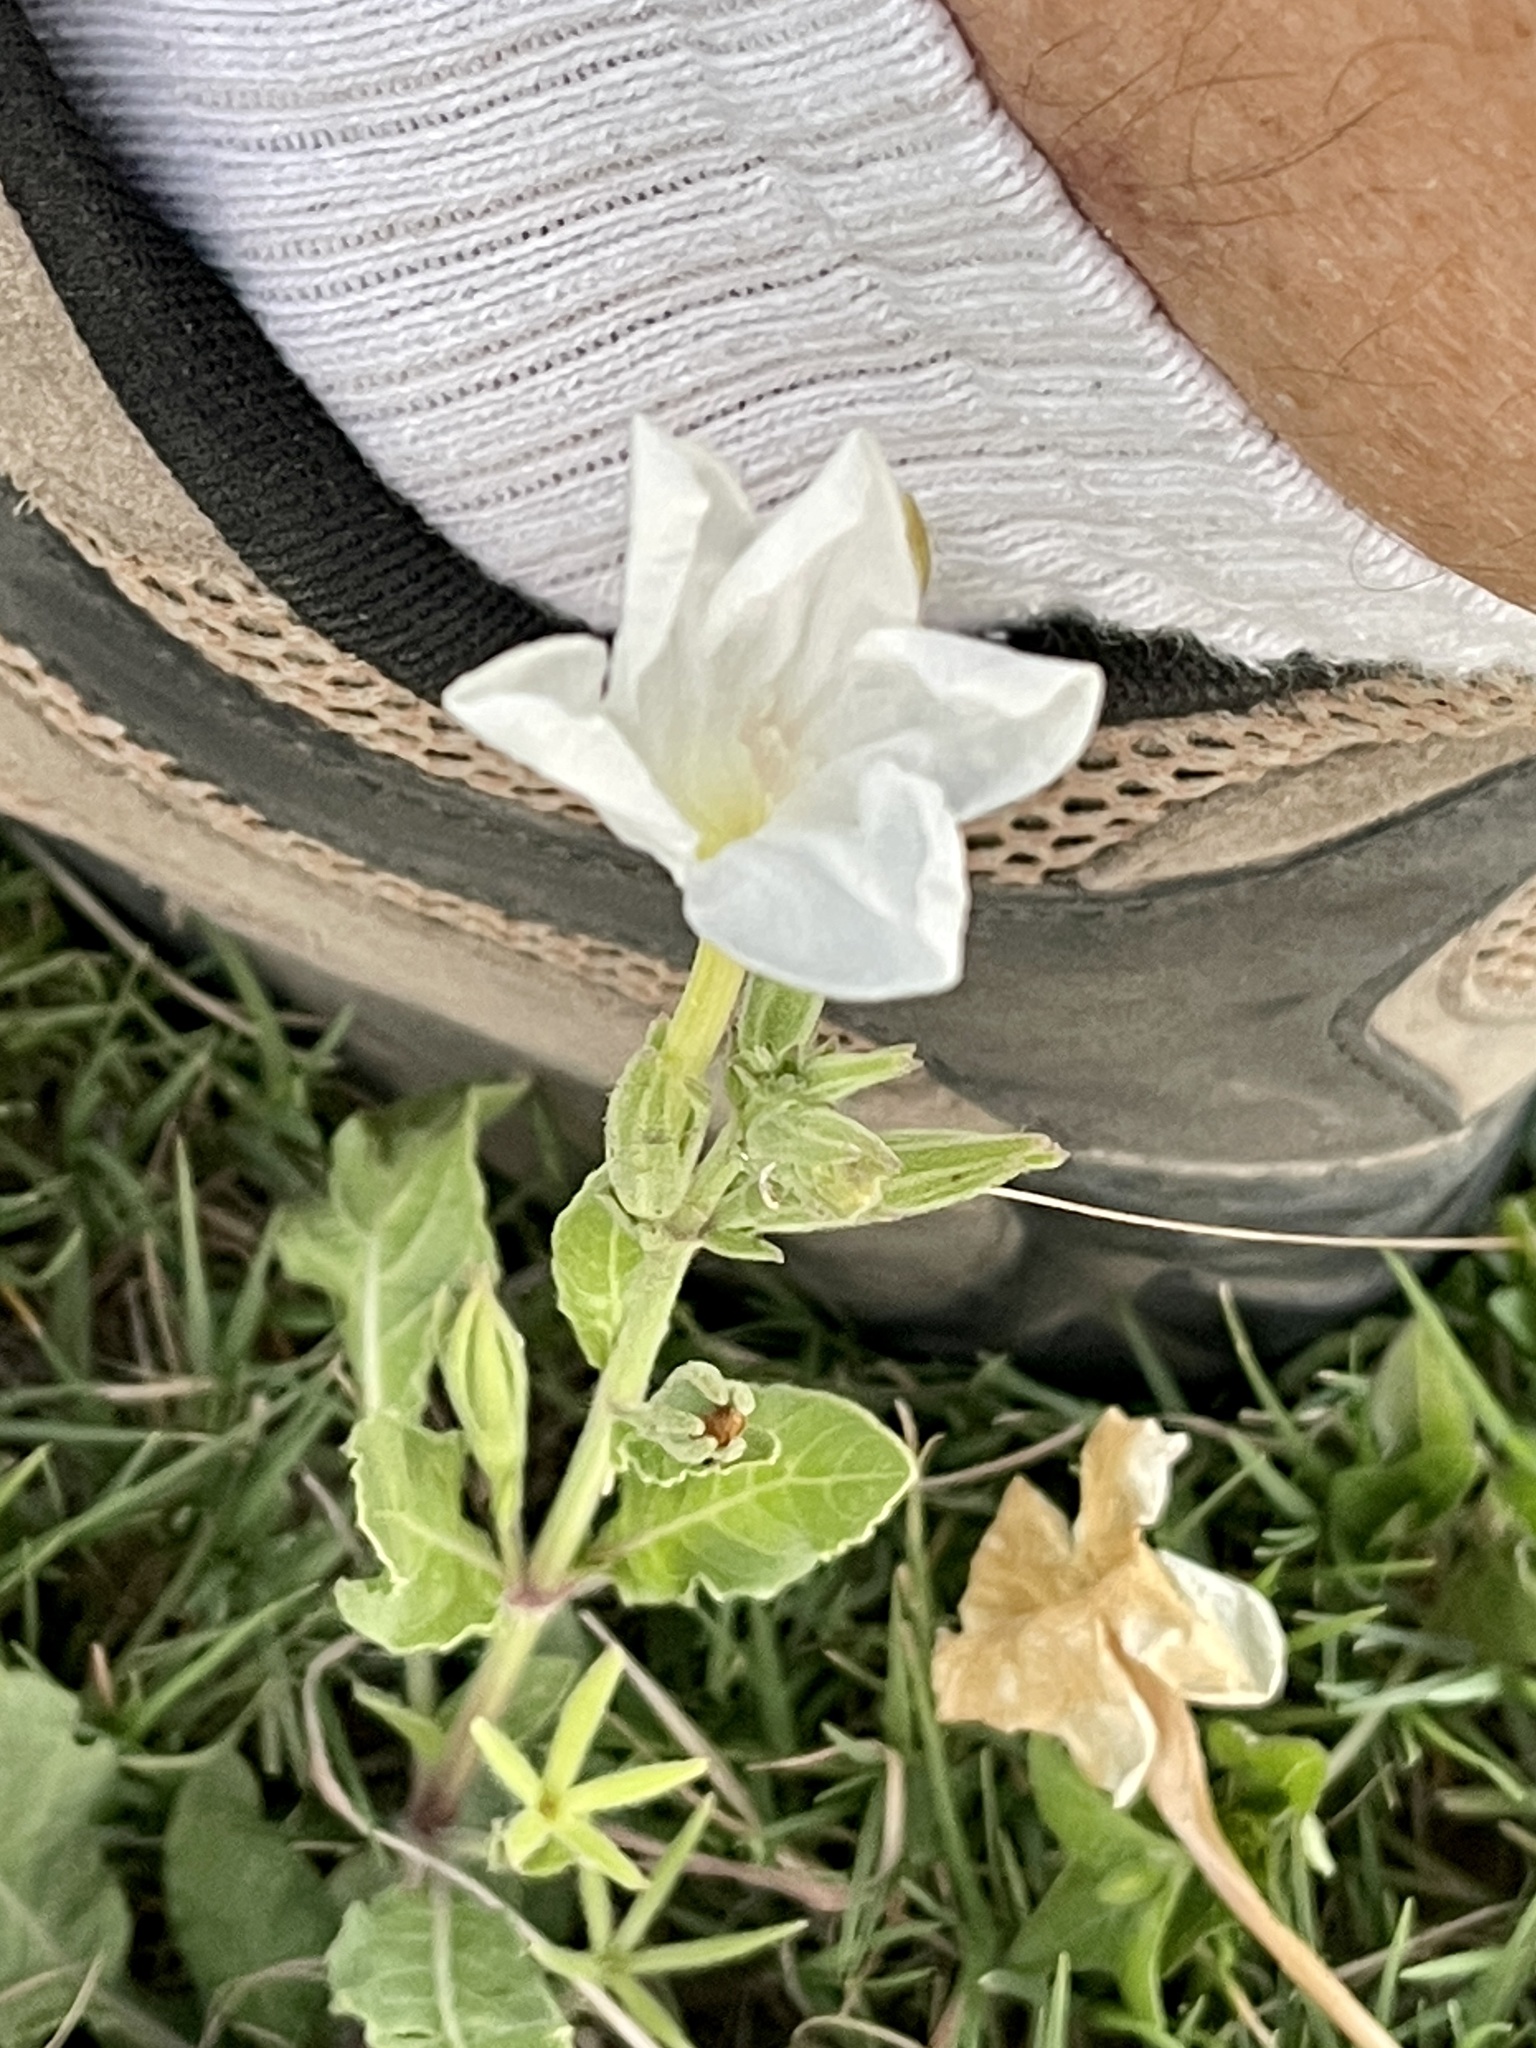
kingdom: Plantae
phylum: Tracheophyta
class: Magnoliopsida
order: Lamiales
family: Acanthaceae
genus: Ruellia
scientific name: Ruellia metziae
